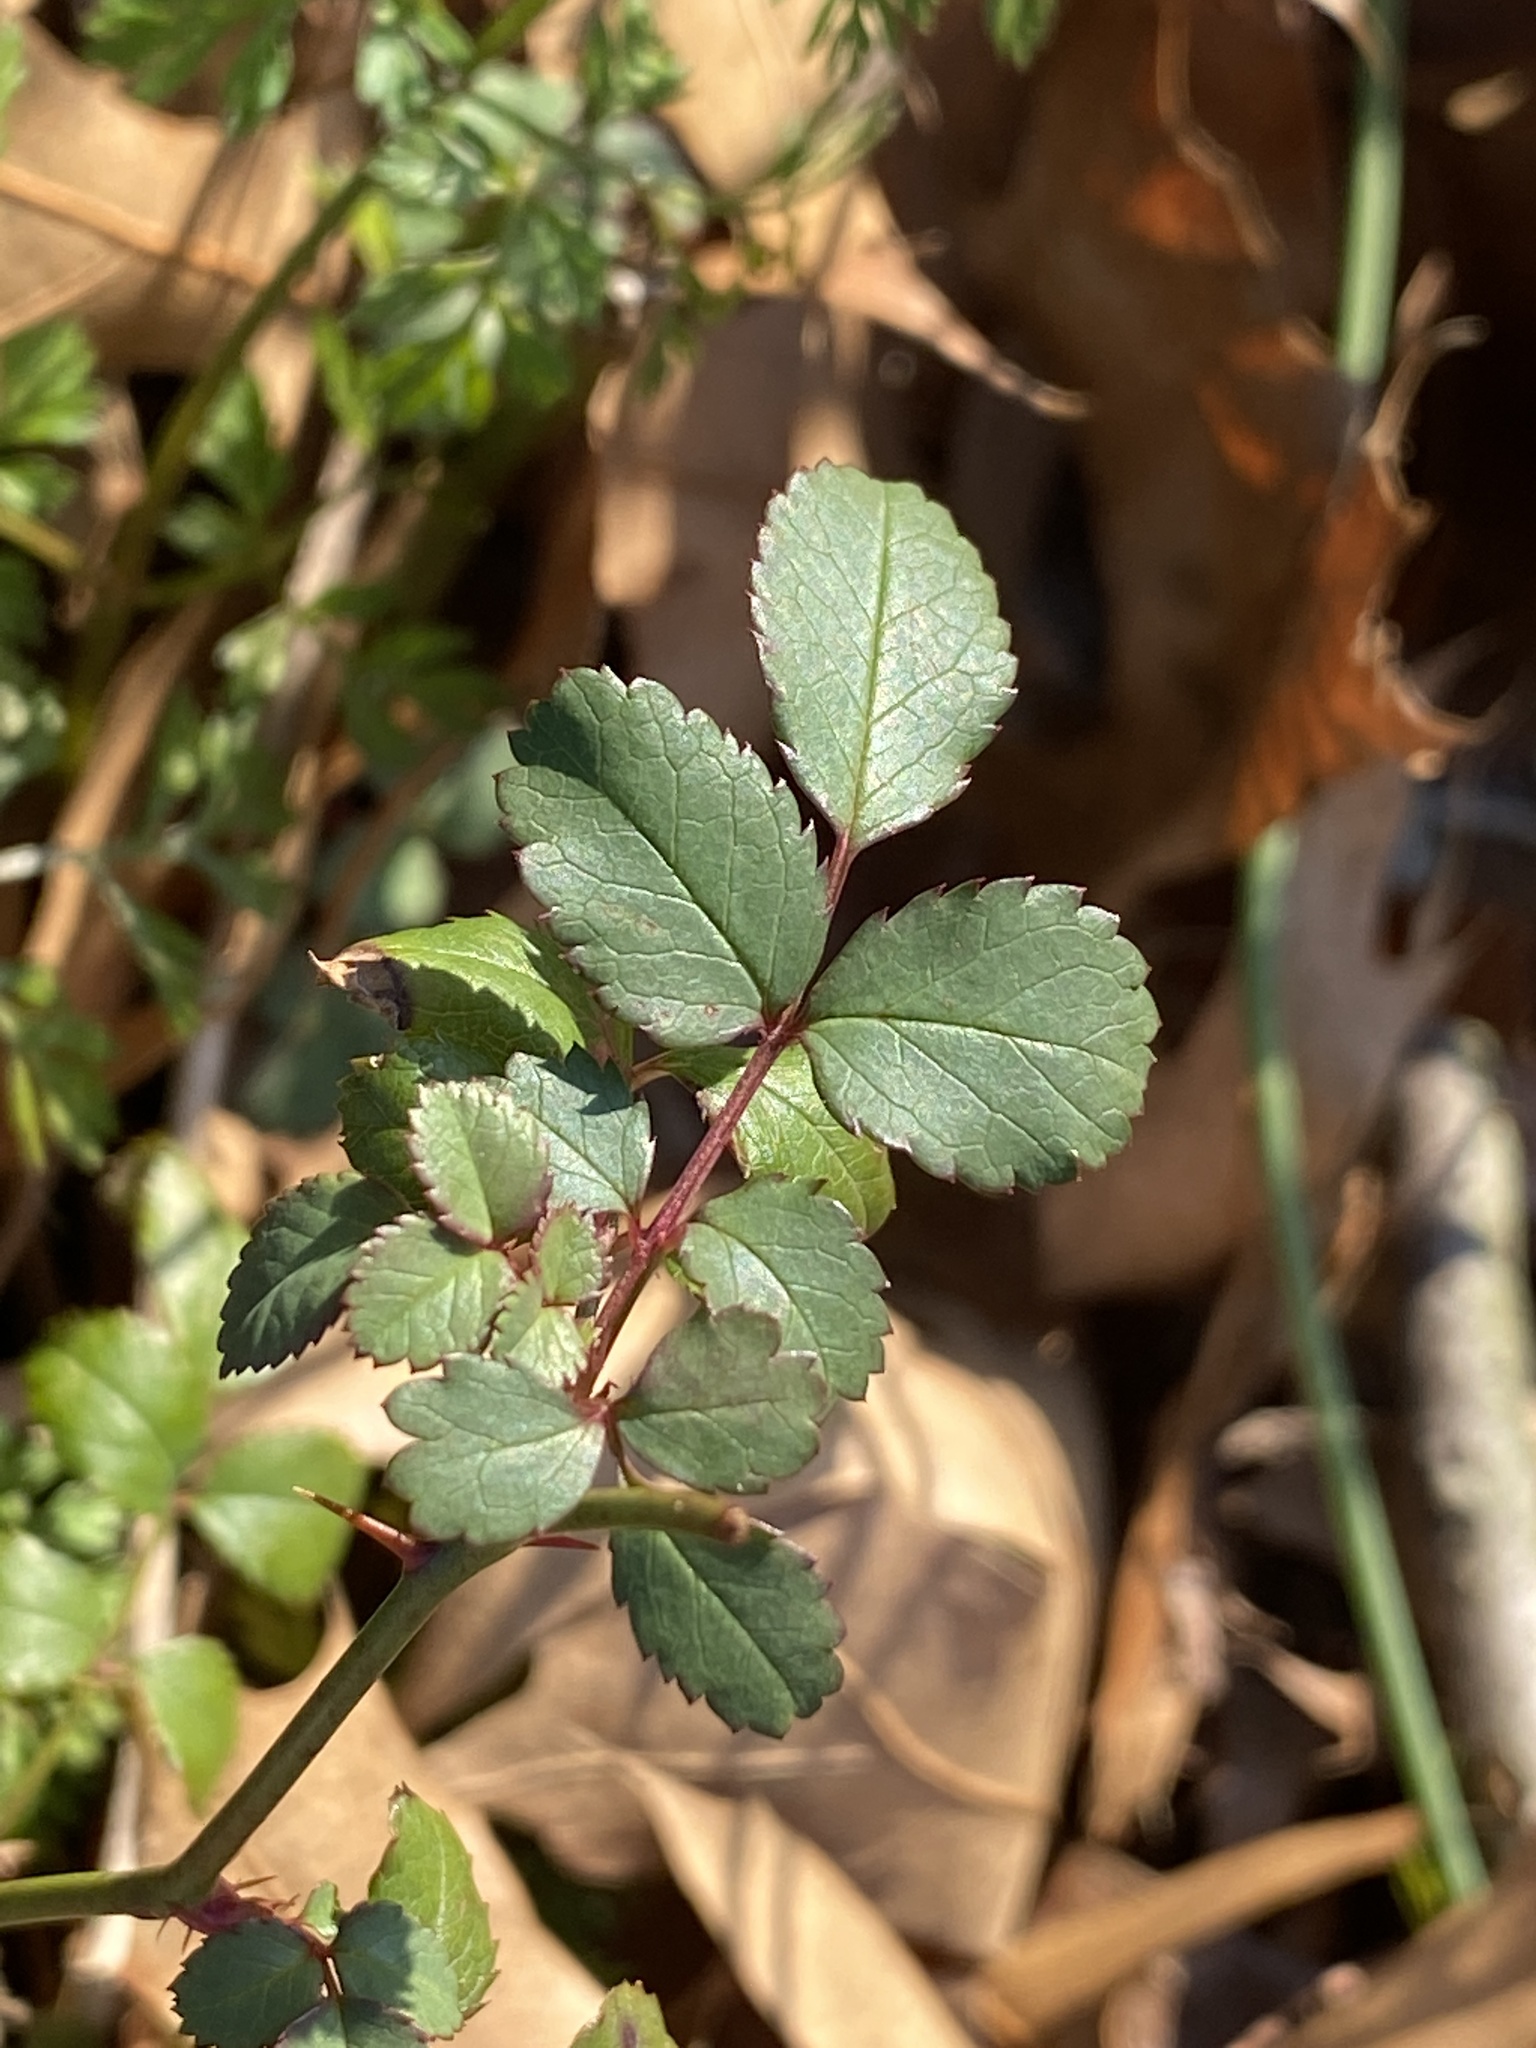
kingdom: Plantae
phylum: Tracheophyta
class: Magnoliopsida
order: Rosales
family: Rosaceae
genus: Rosa
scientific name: Rosa multiflora
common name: Multiflora rose
